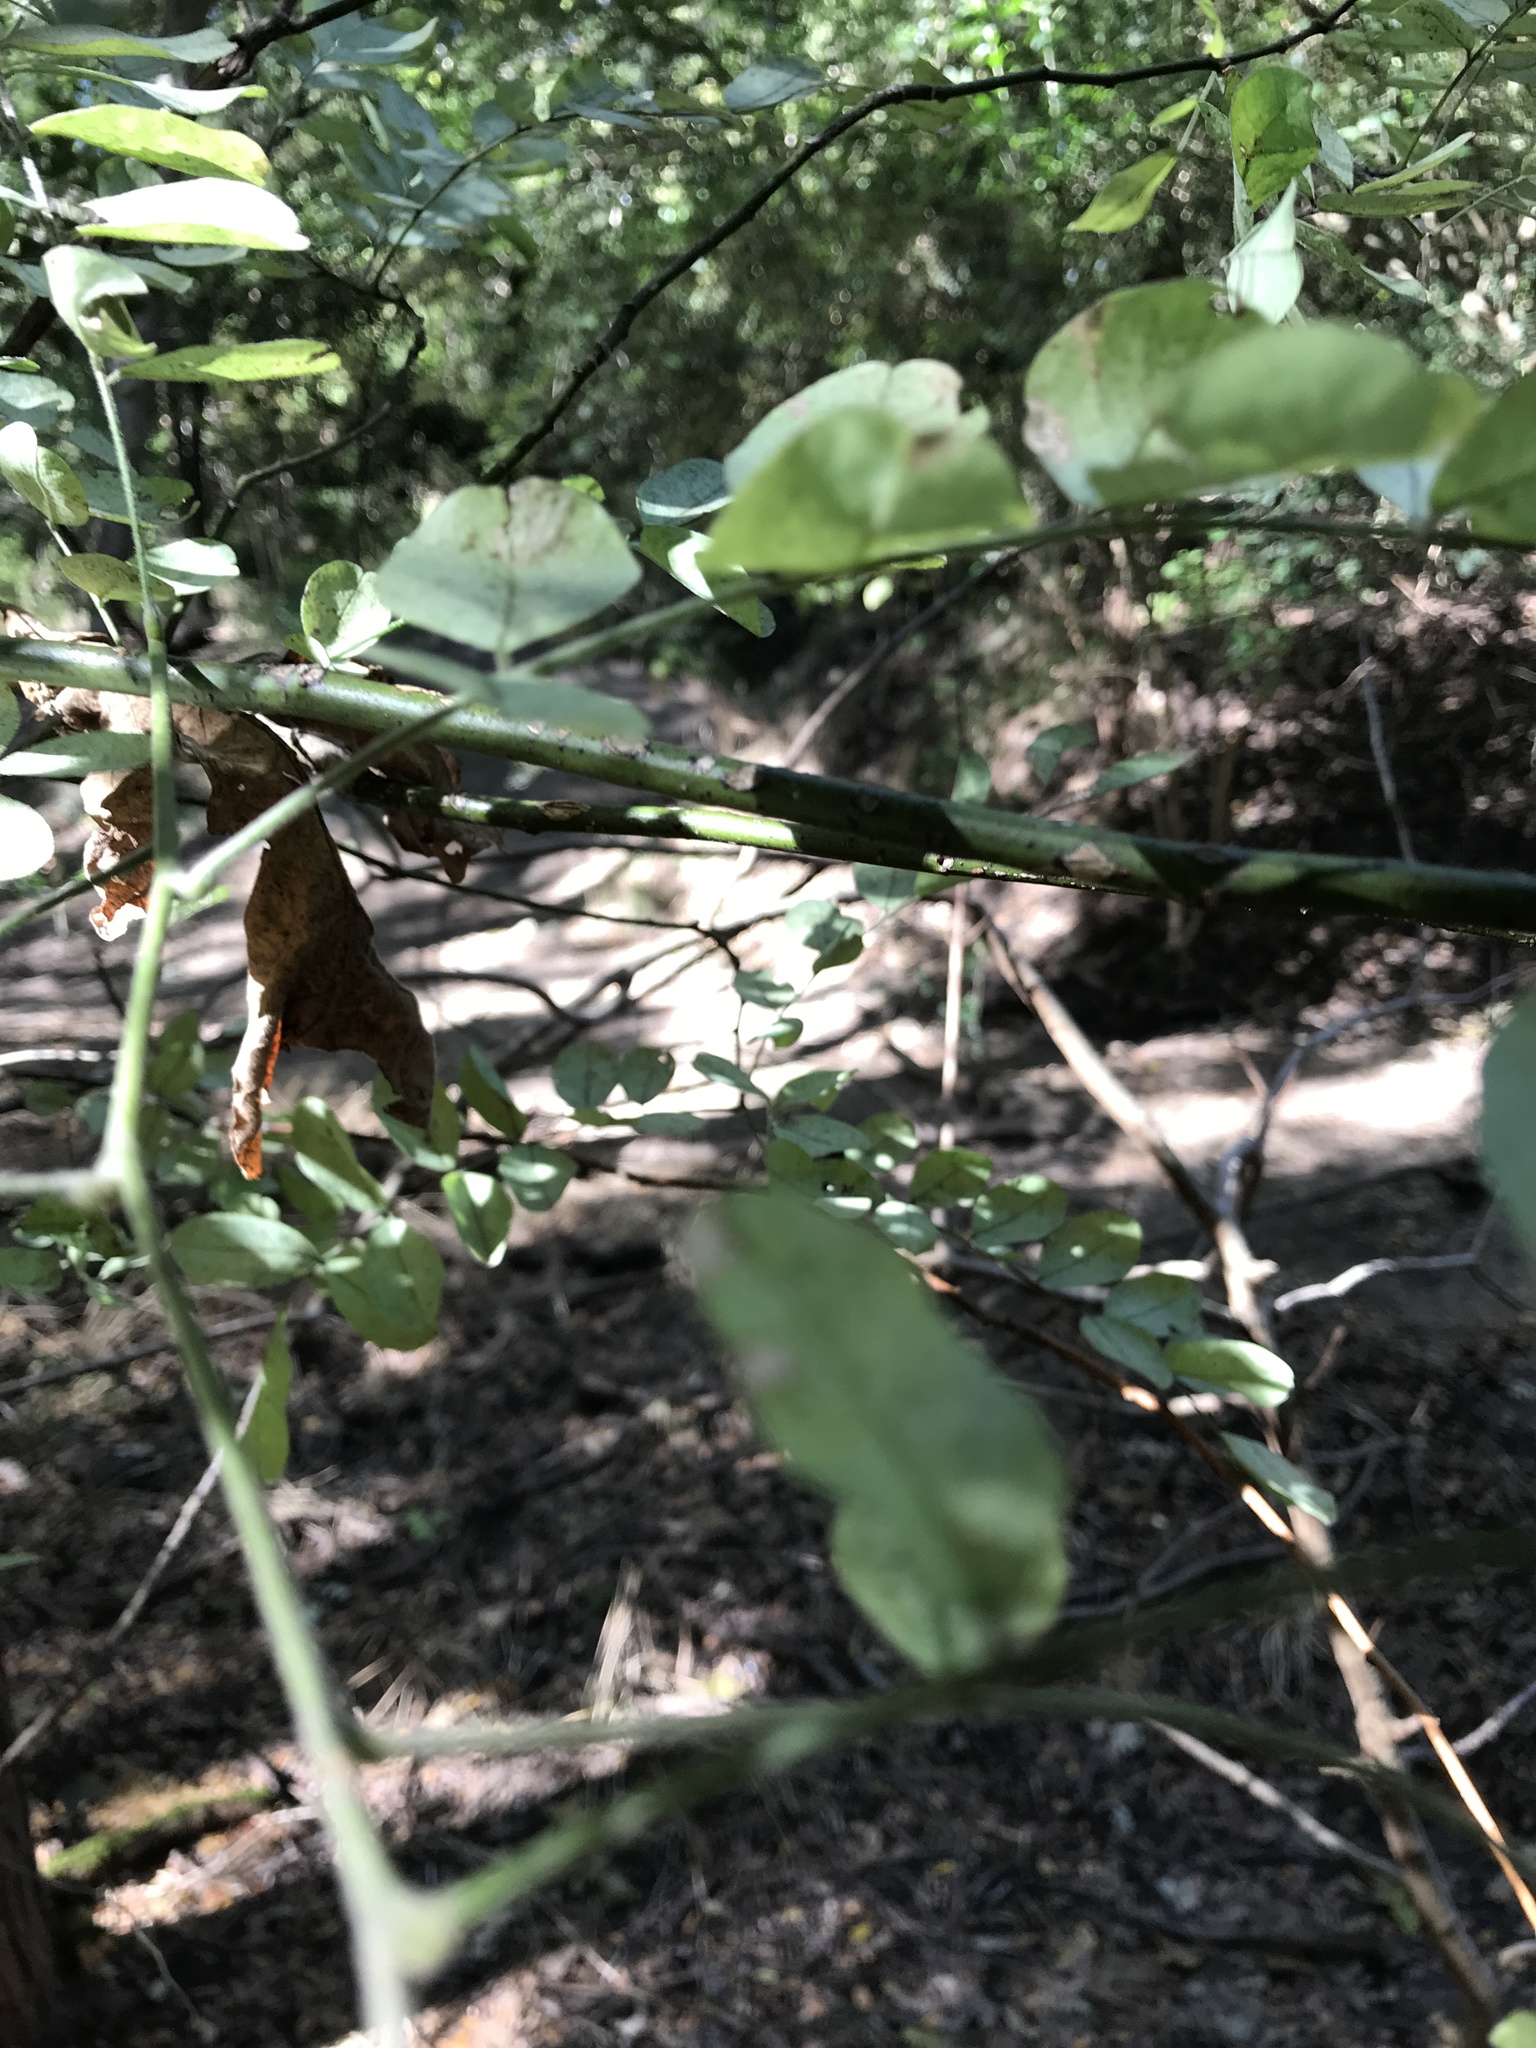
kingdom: Plantae
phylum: Tracheophyta
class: Magnoliopsida
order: Fabales
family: Fabaceae
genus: Styphnolobium
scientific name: Styphnolobium affine
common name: Texas sophora
